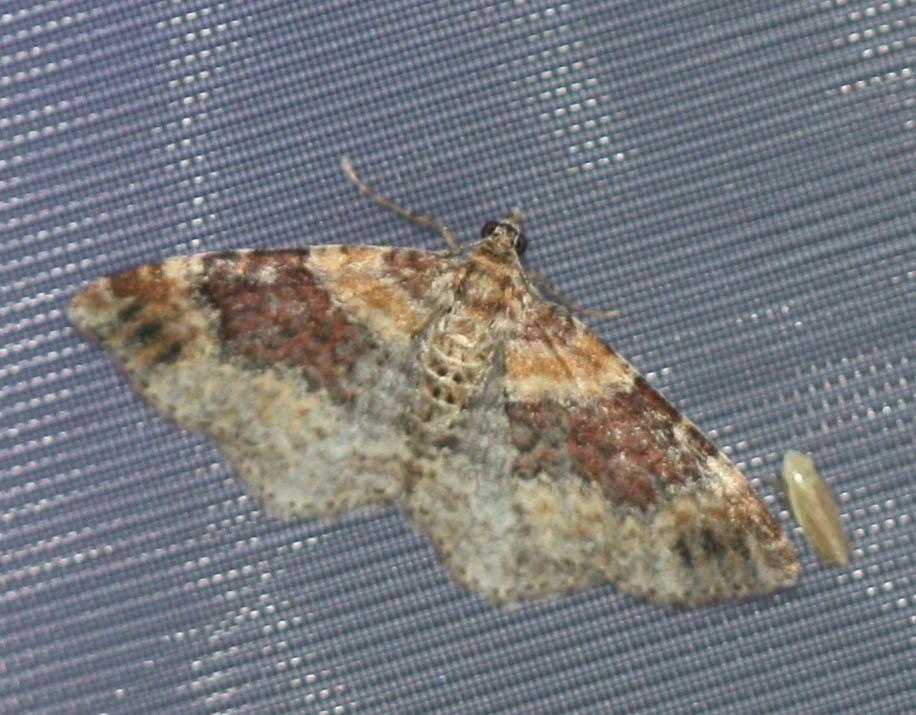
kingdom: Animalia
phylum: Arthropoda
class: Insecta
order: Lepidoptera
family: Geometridae
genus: Xanthorhoe
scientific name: Xanthorhoe spadicearia
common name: Red twin-spot carpet
